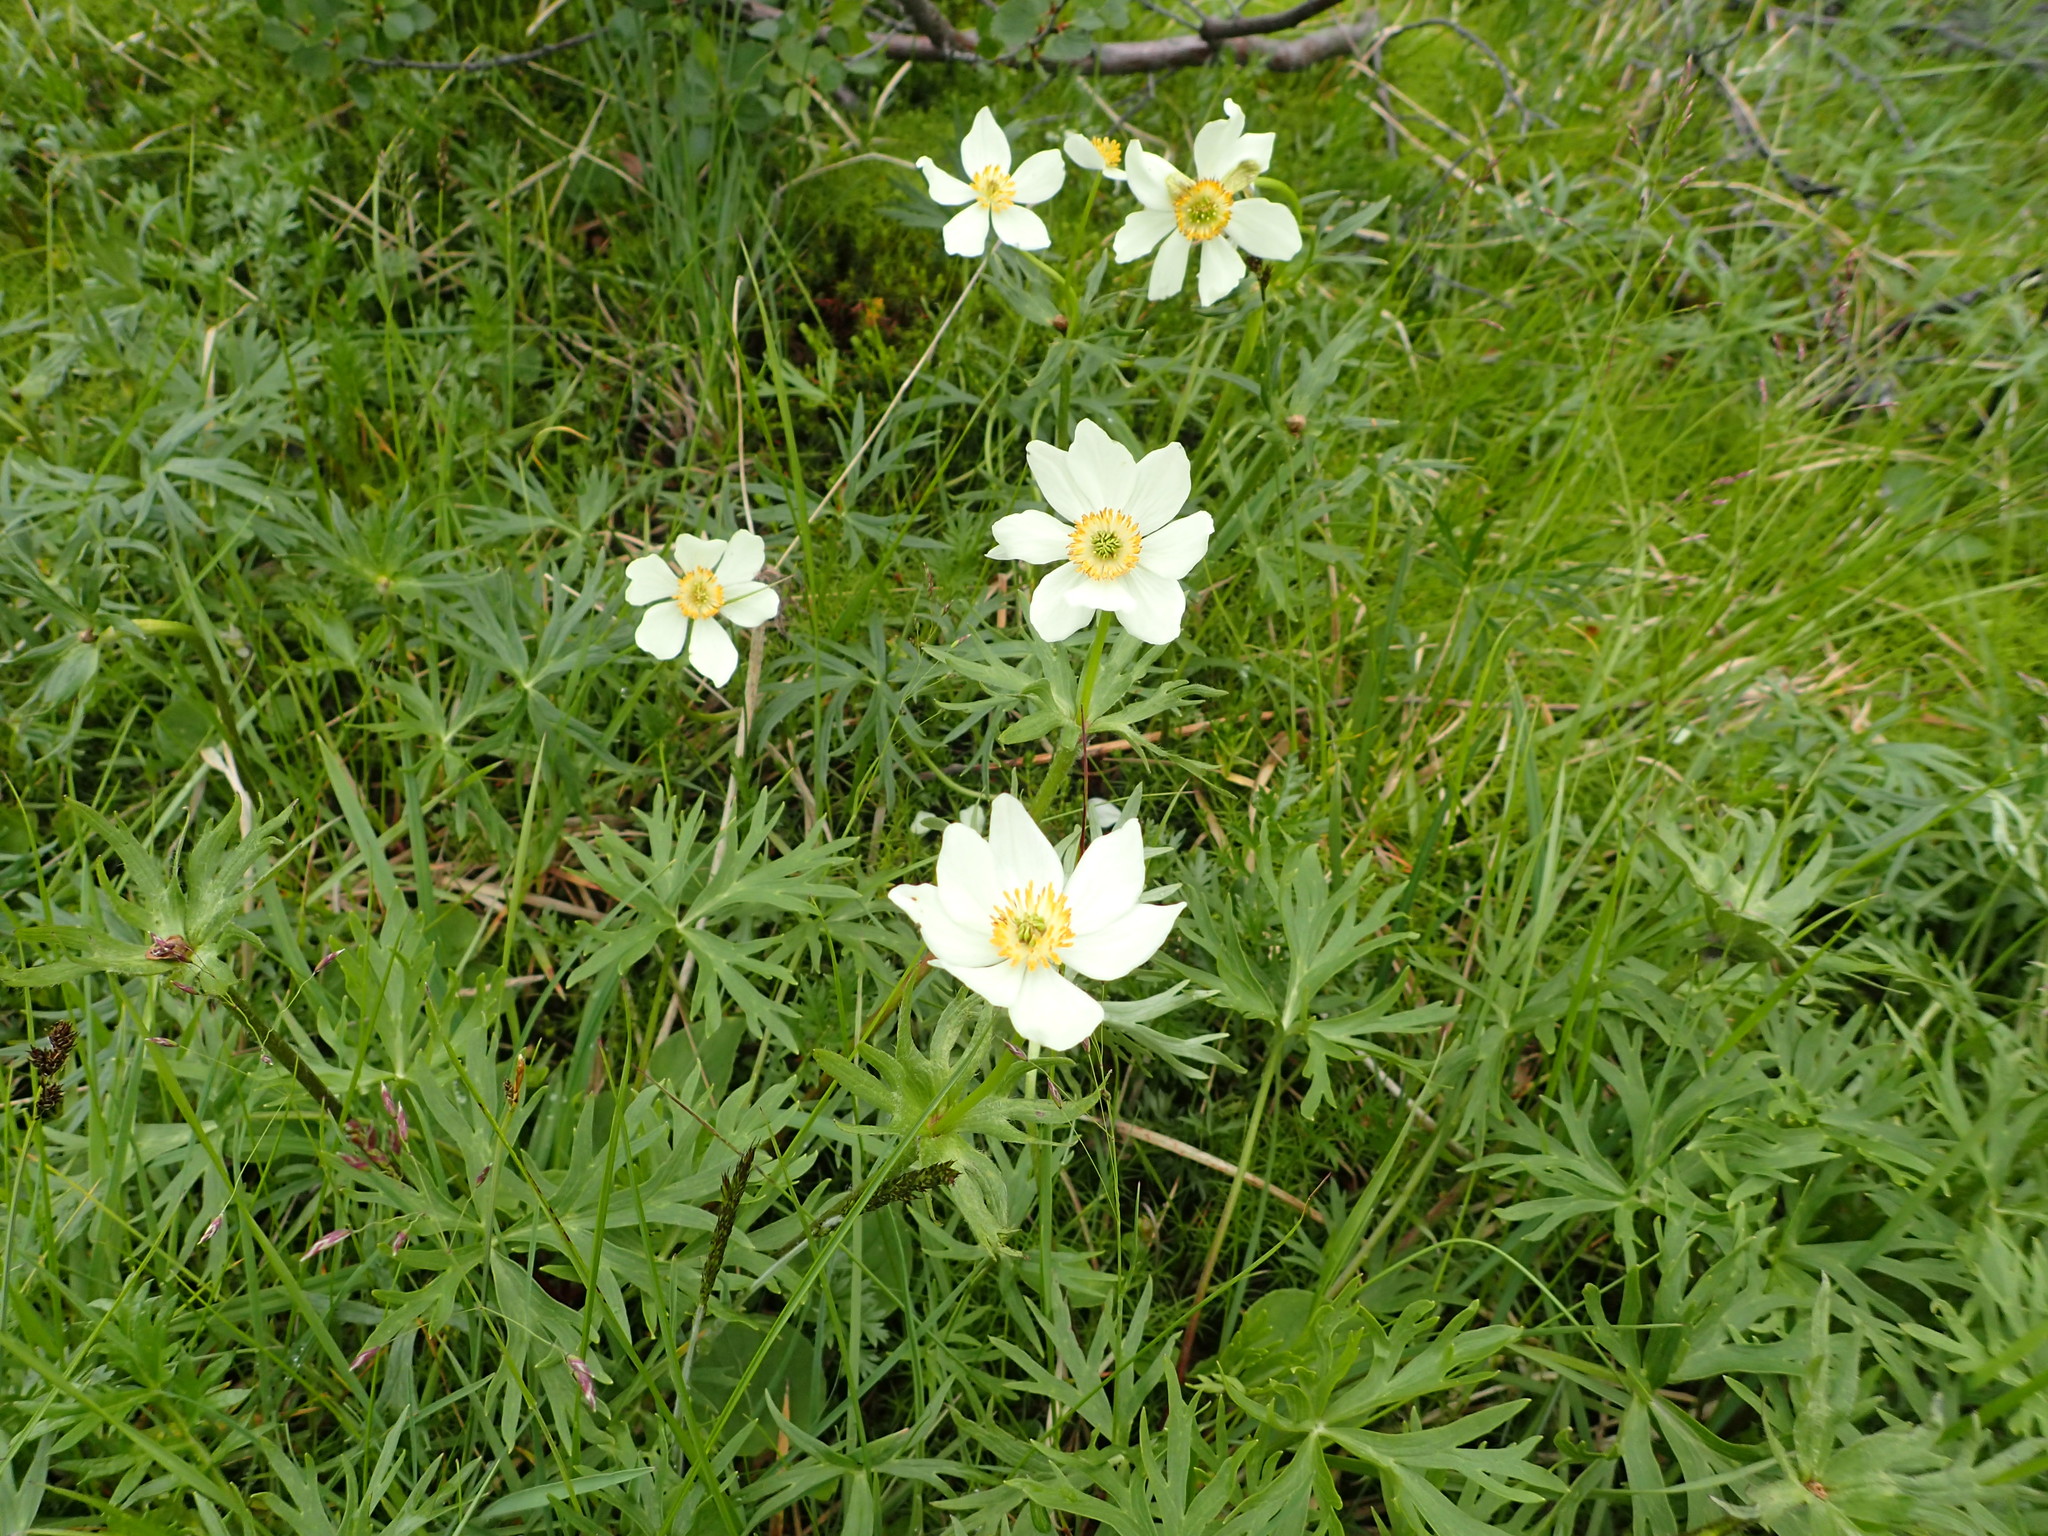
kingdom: Plantae
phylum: Tracheophyta
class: Magnoliopsida
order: Ranunculales
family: Ranunculaceae
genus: Anemonastrum
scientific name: Anemonastrum narcissiflorum
